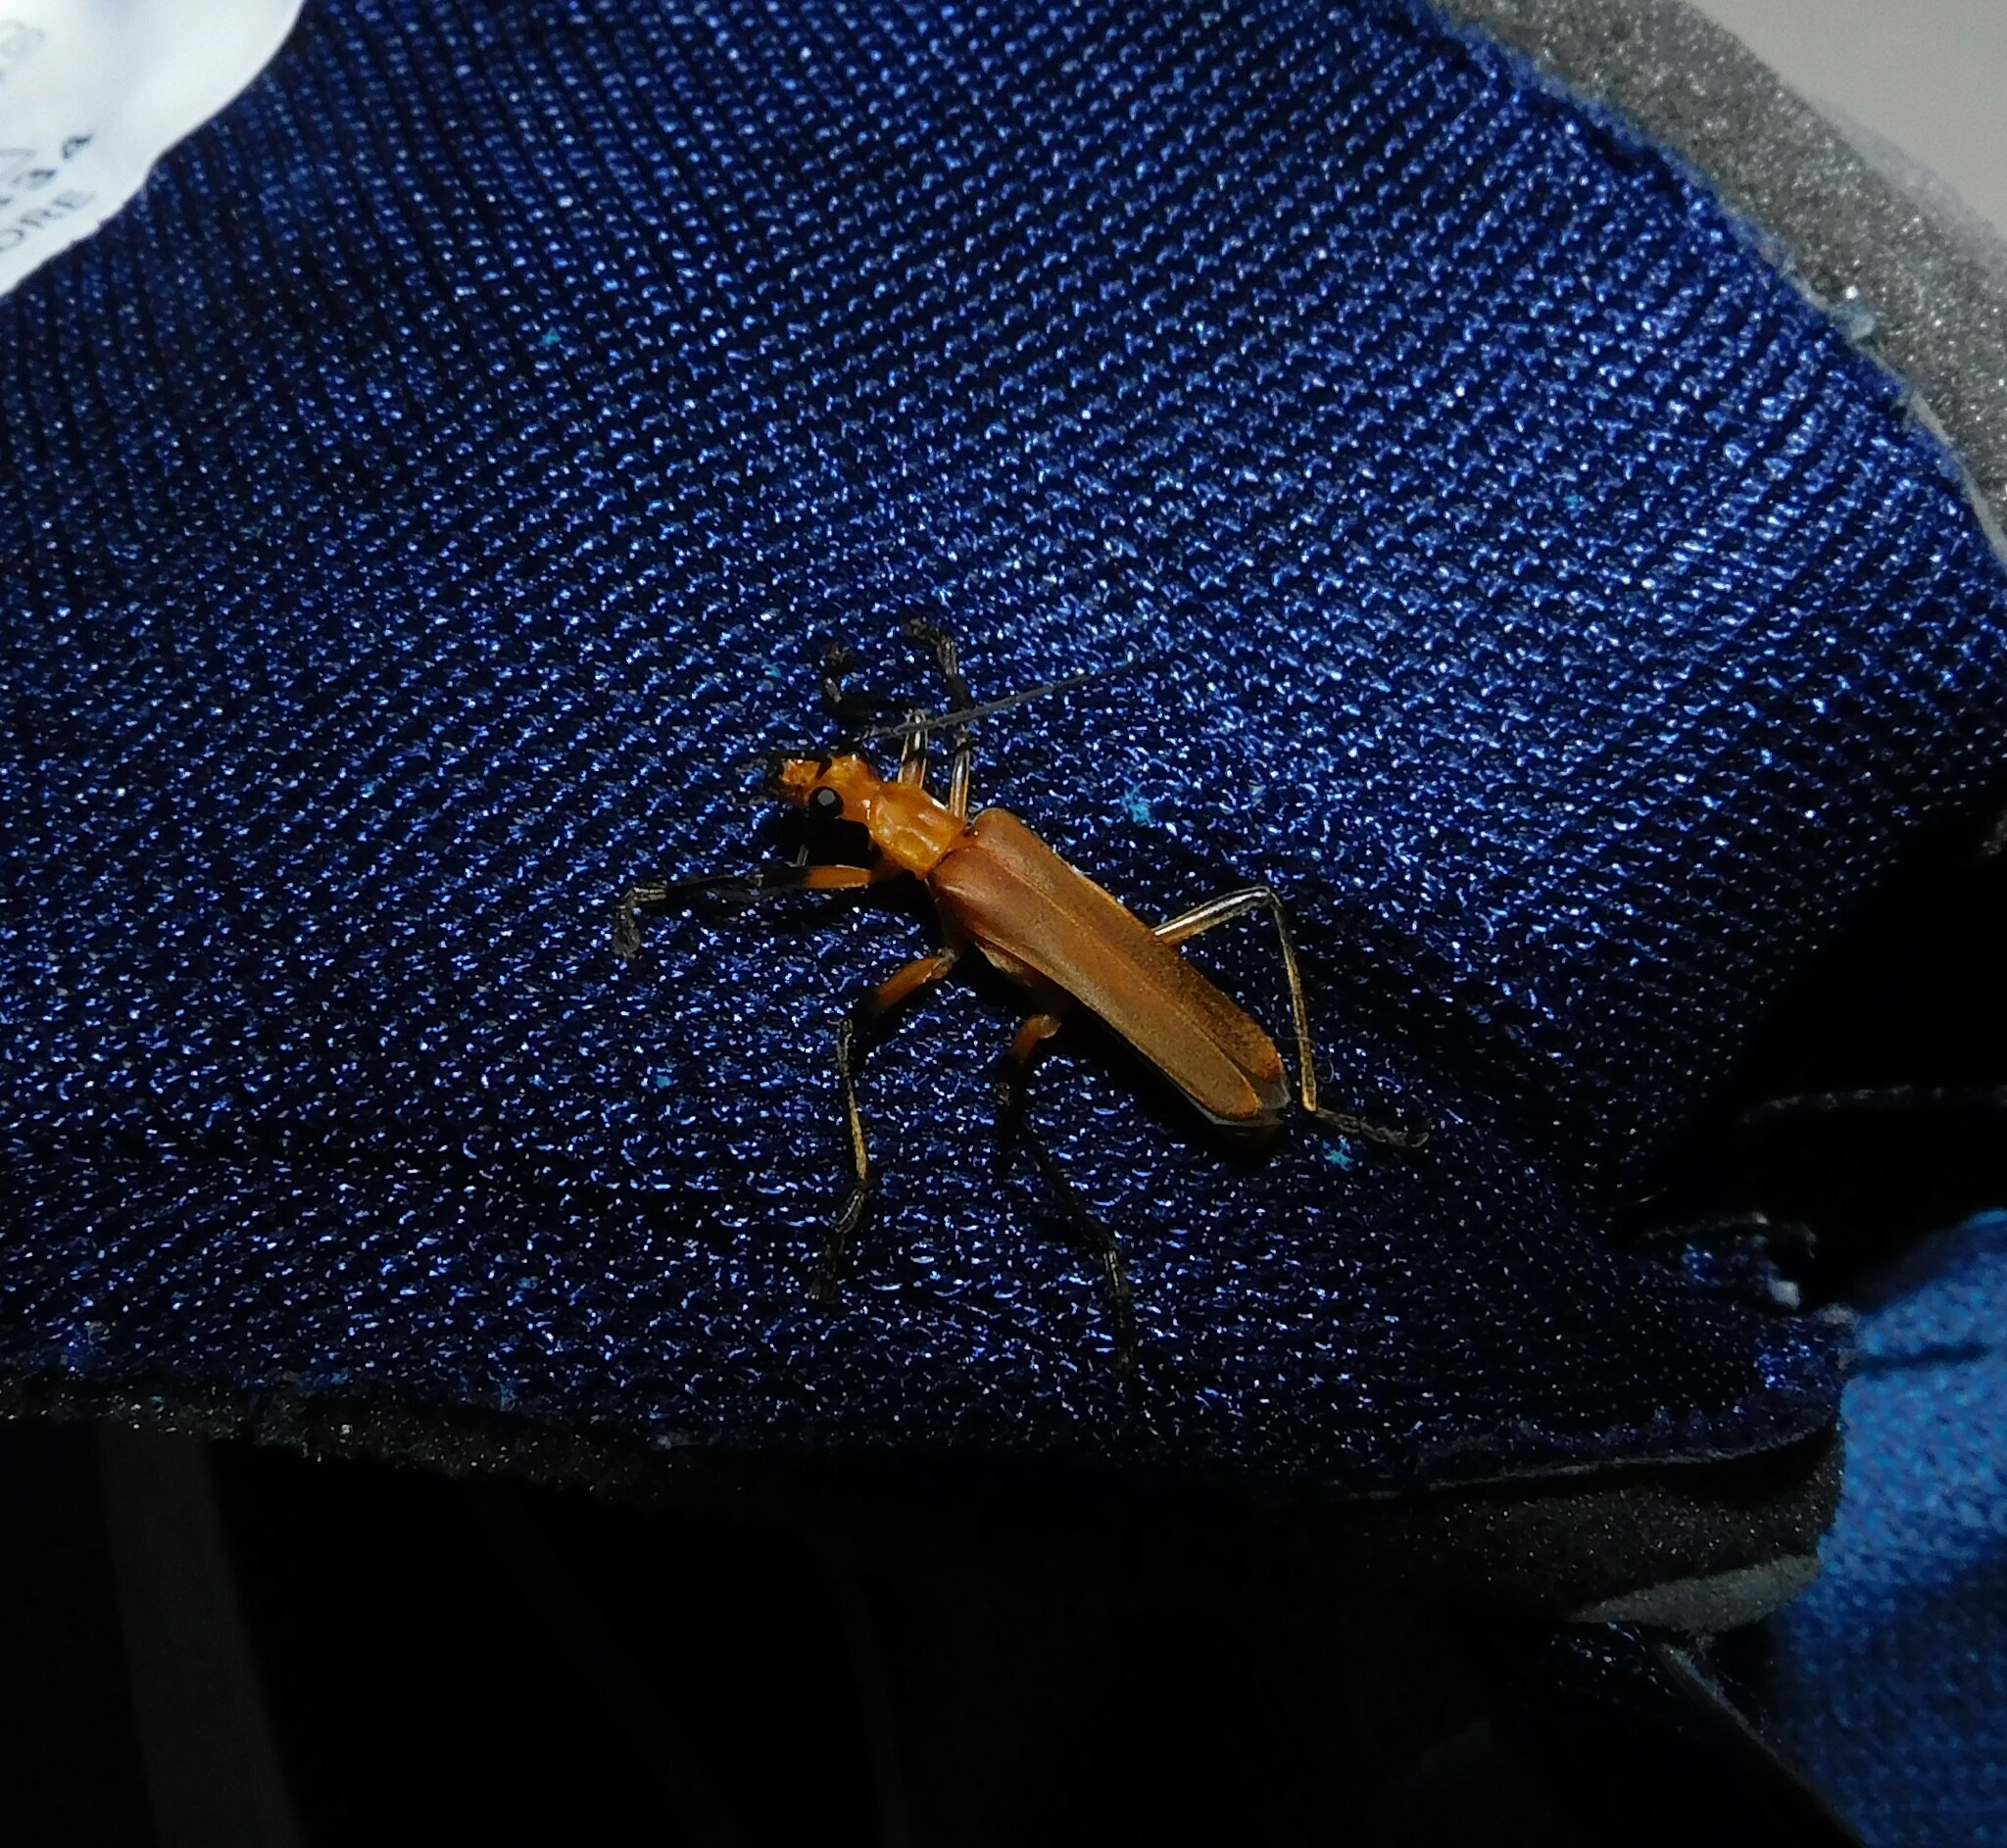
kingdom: Animalia
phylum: Arthropoda
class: Insecta
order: Coleoptera
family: Cantharidae
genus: Chauliognathus
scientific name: Chauliognathus
